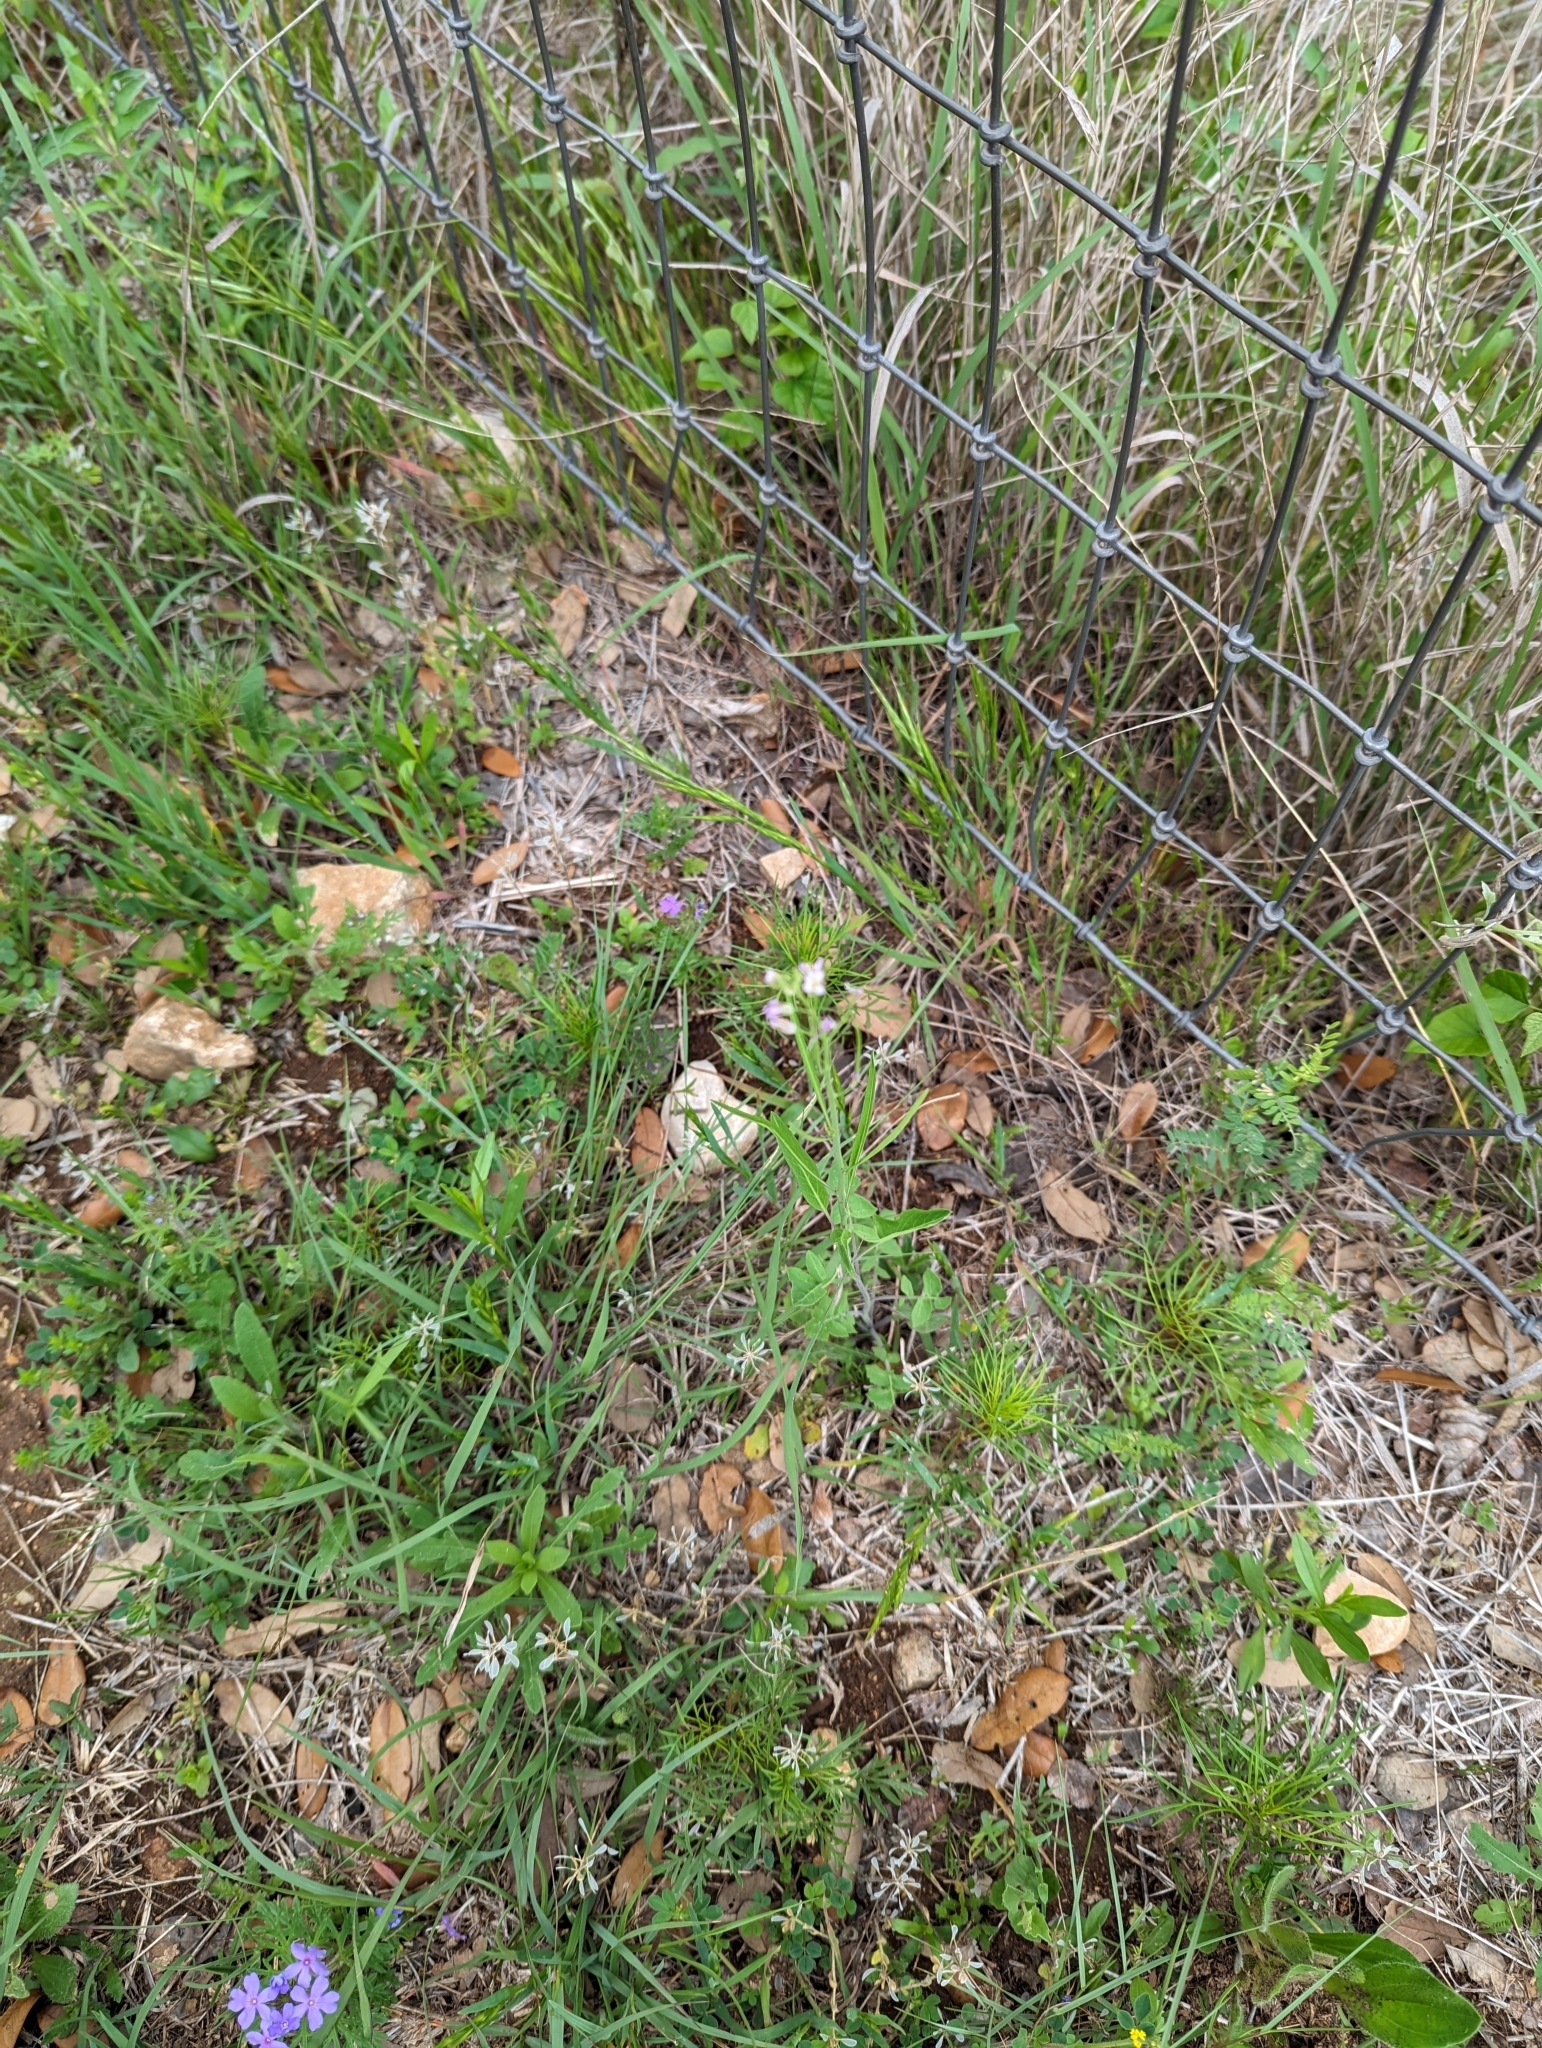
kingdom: Plantae
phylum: Tracheophyta
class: Magnoliopsida
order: Brassicales
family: Brassicaceae
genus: Streptanthus
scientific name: Streptanthus petiolaris
